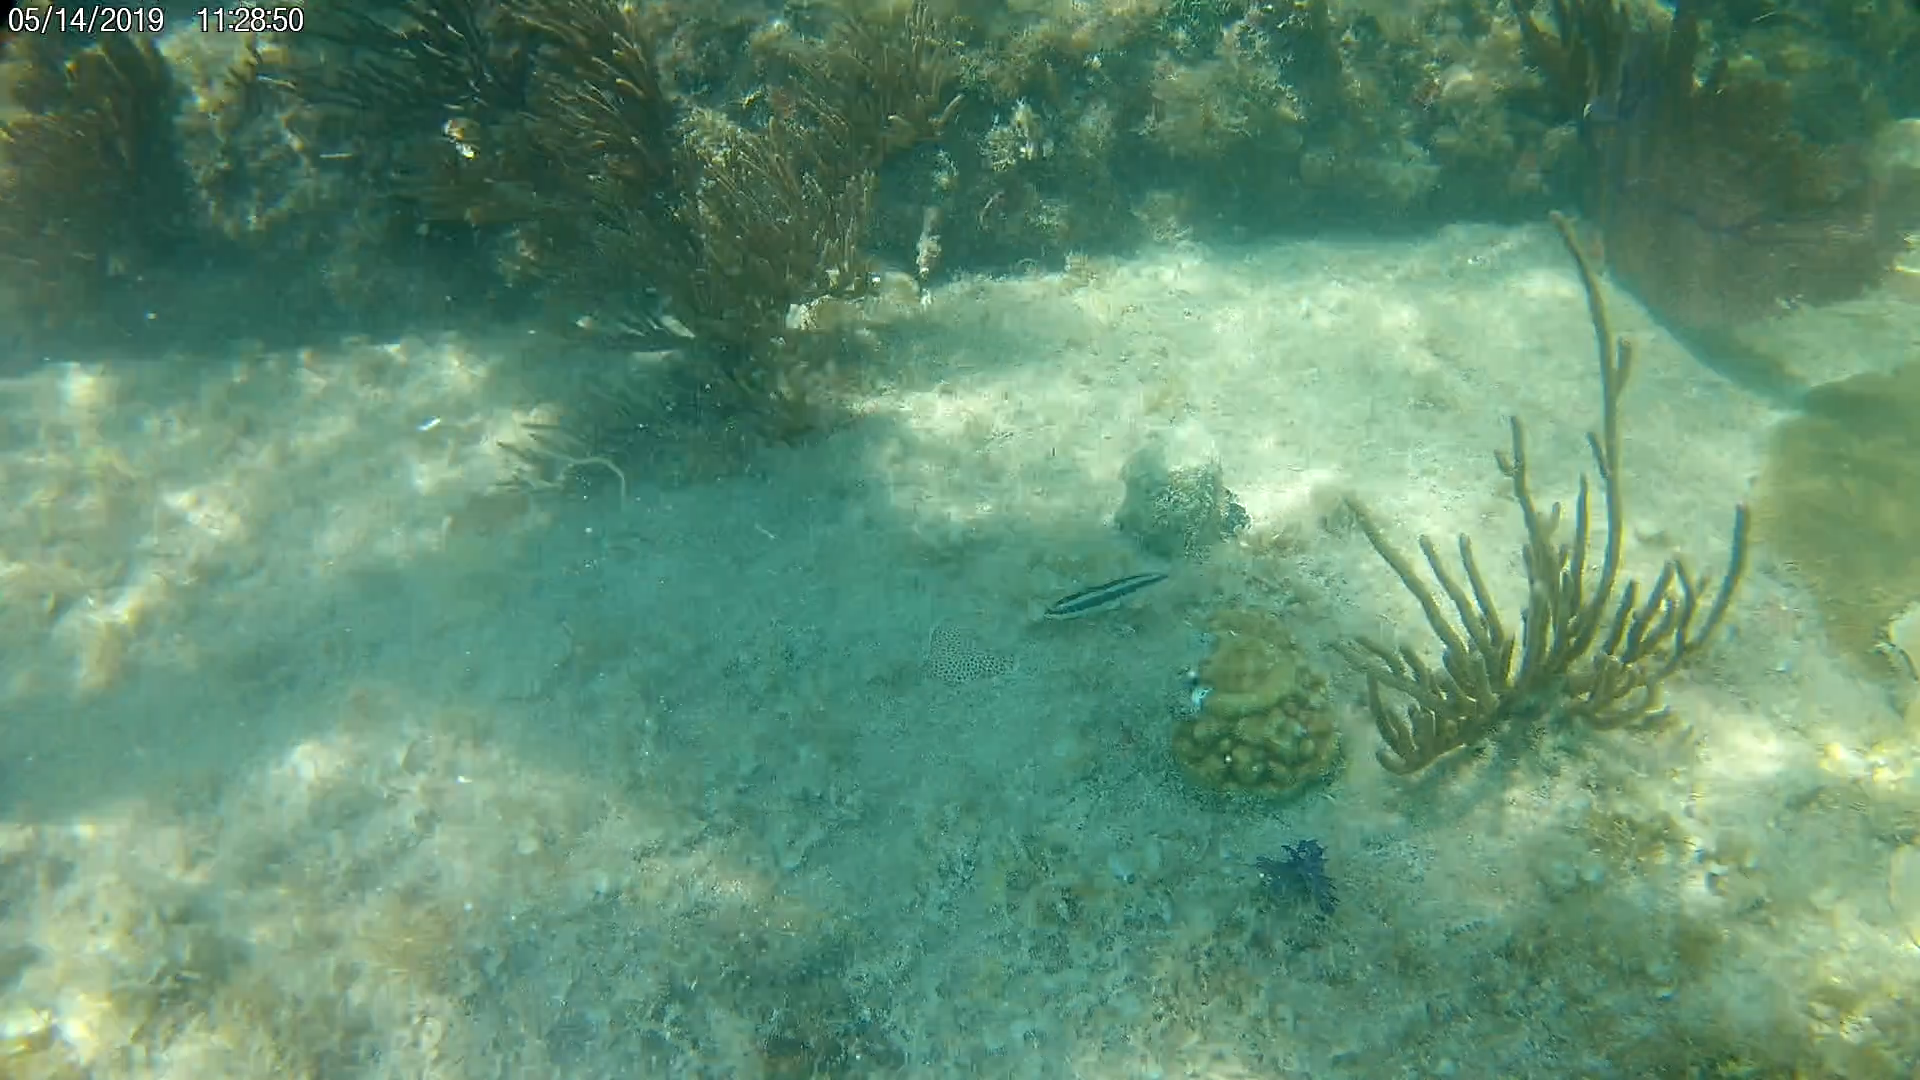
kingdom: Animalia
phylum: Chordata
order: Perciformes
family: Labridae
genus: Thalassoma
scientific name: Thalassoma bifasciatum
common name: Bluehead wrasse
